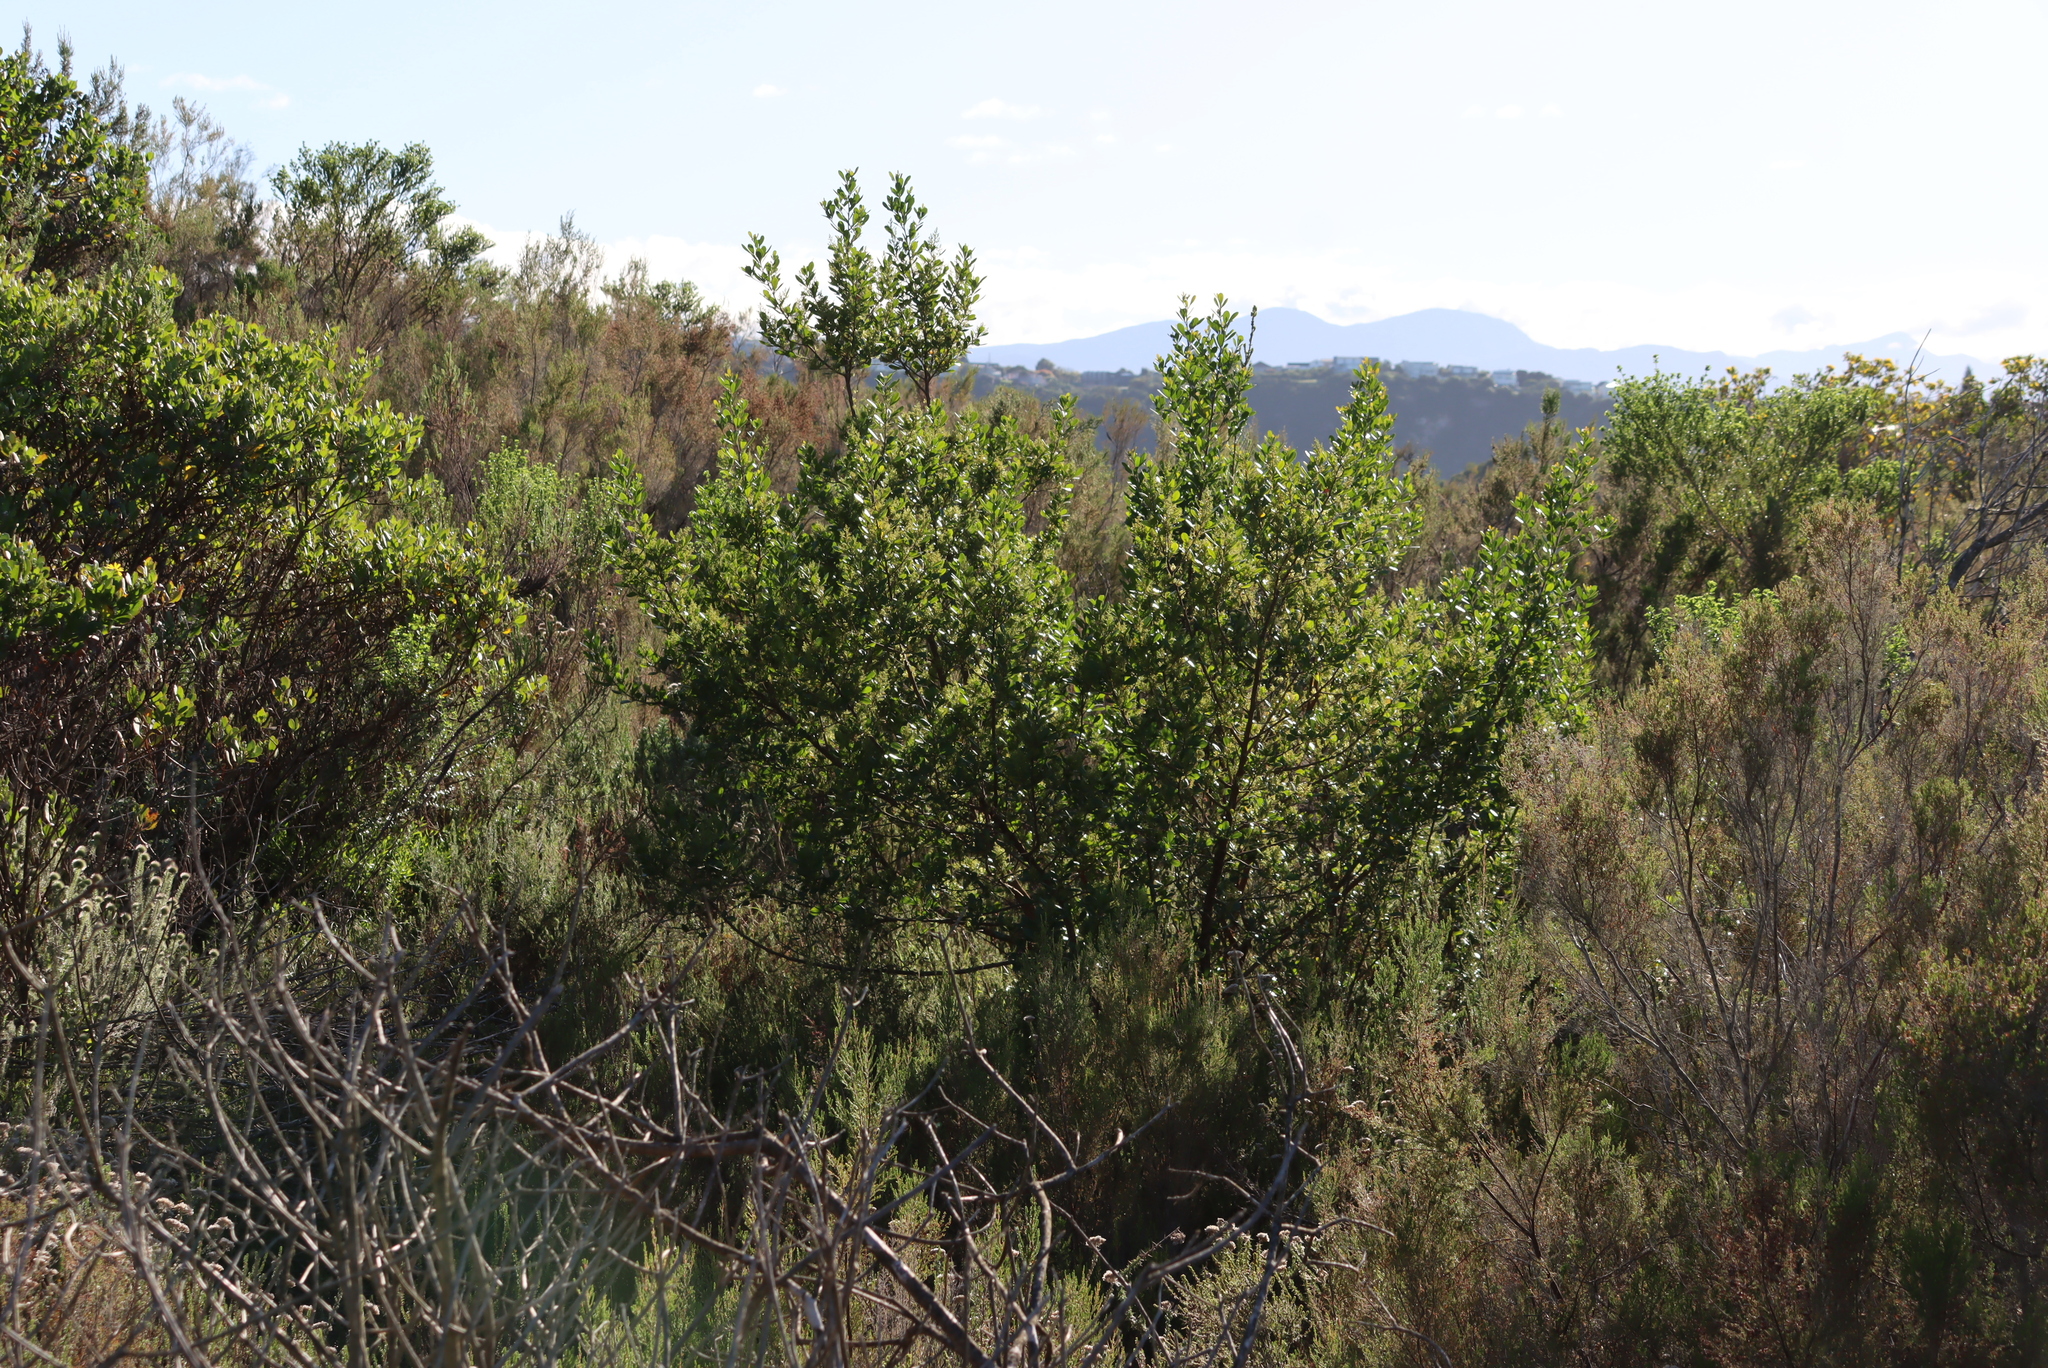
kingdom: Plantae
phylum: Tracheophyta
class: Magnoliopsida
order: Sapindales
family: Anacardiaceae
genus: Searsia
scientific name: Searsia lucida
